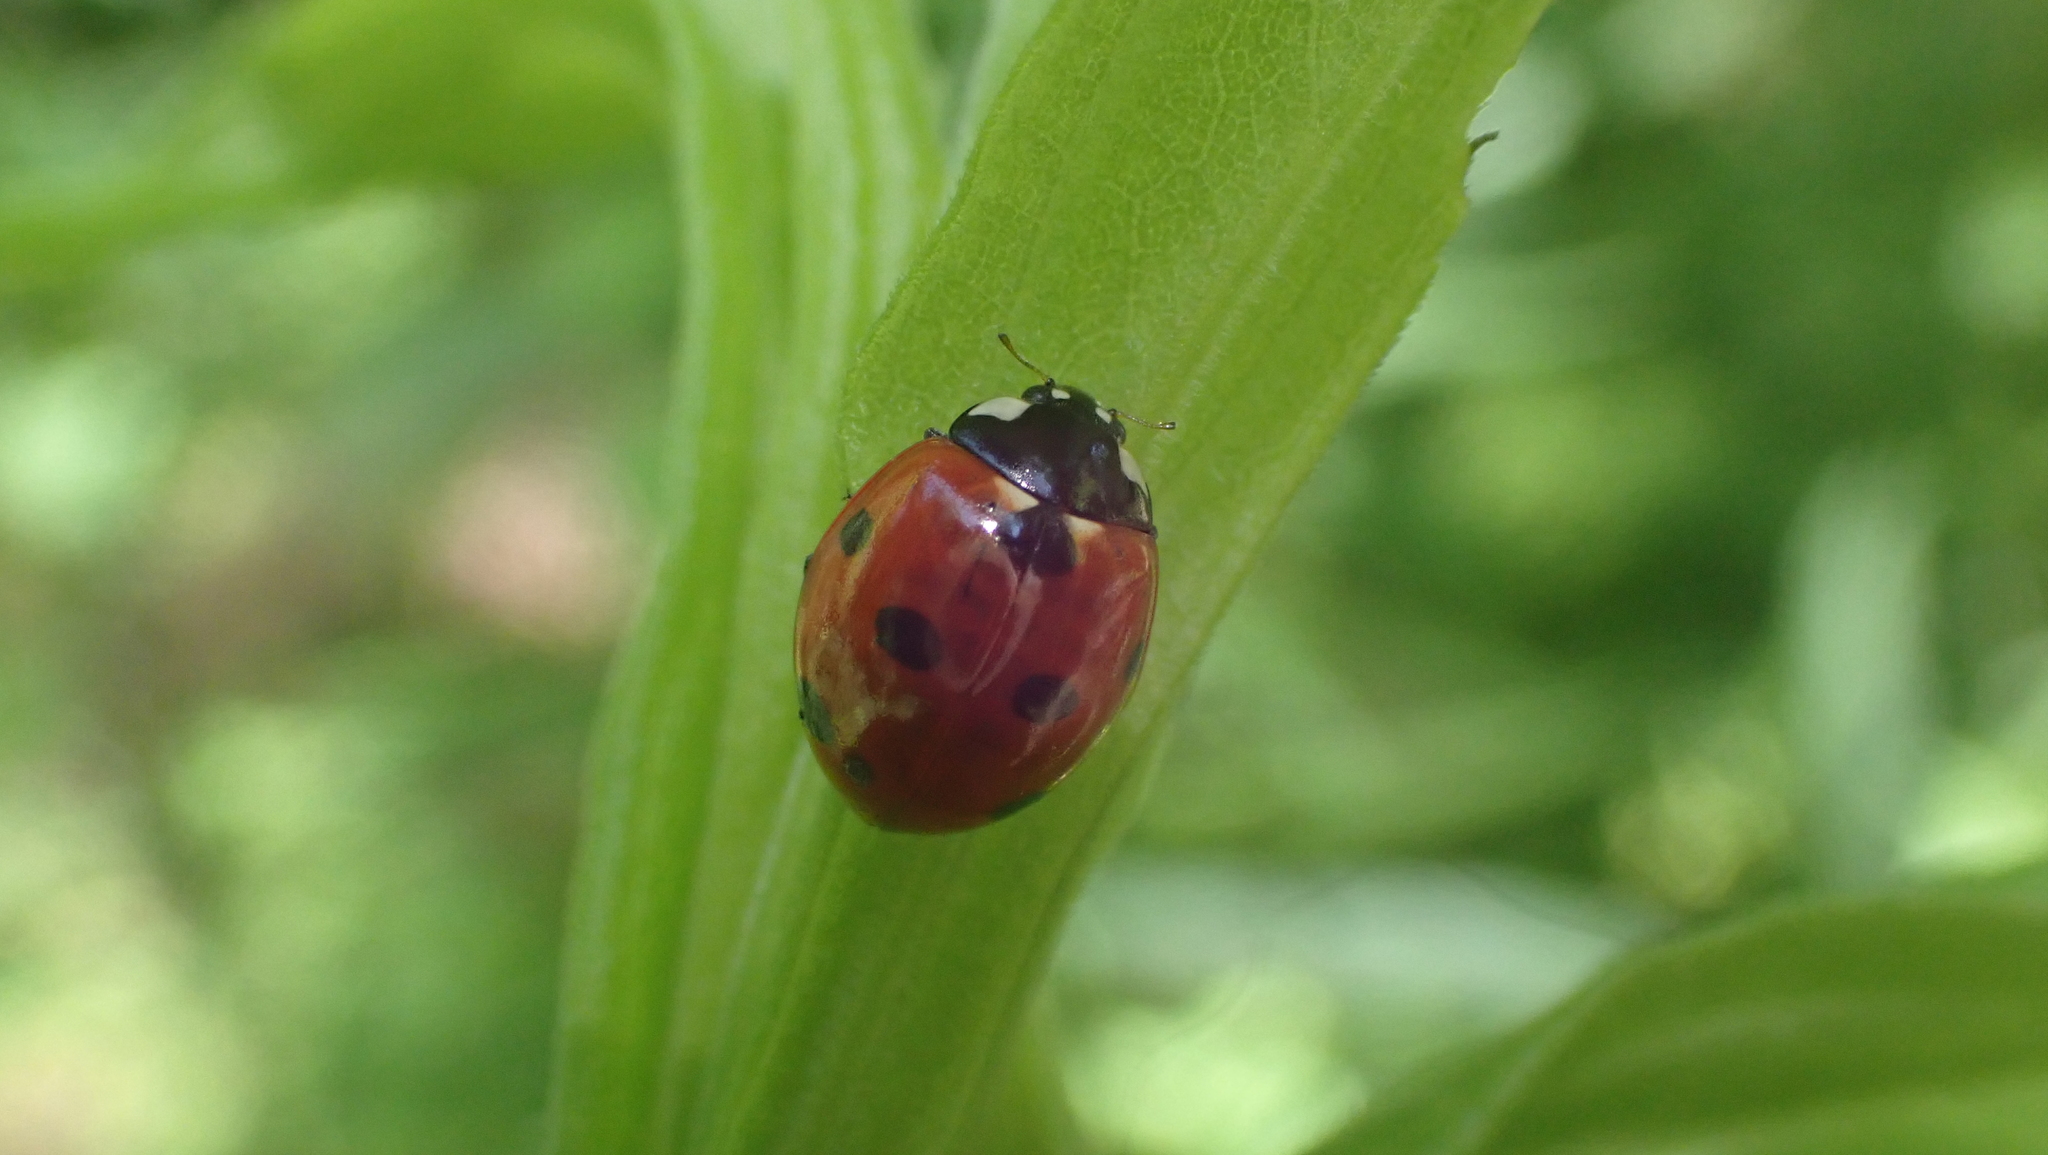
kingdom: Animalia
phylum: Arthropoda
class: Insecta
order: Coleoptera
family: Coccinellidae
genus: Coccinella
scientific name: Coccinella septempunctata
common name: Sevenspotted lady beetle
